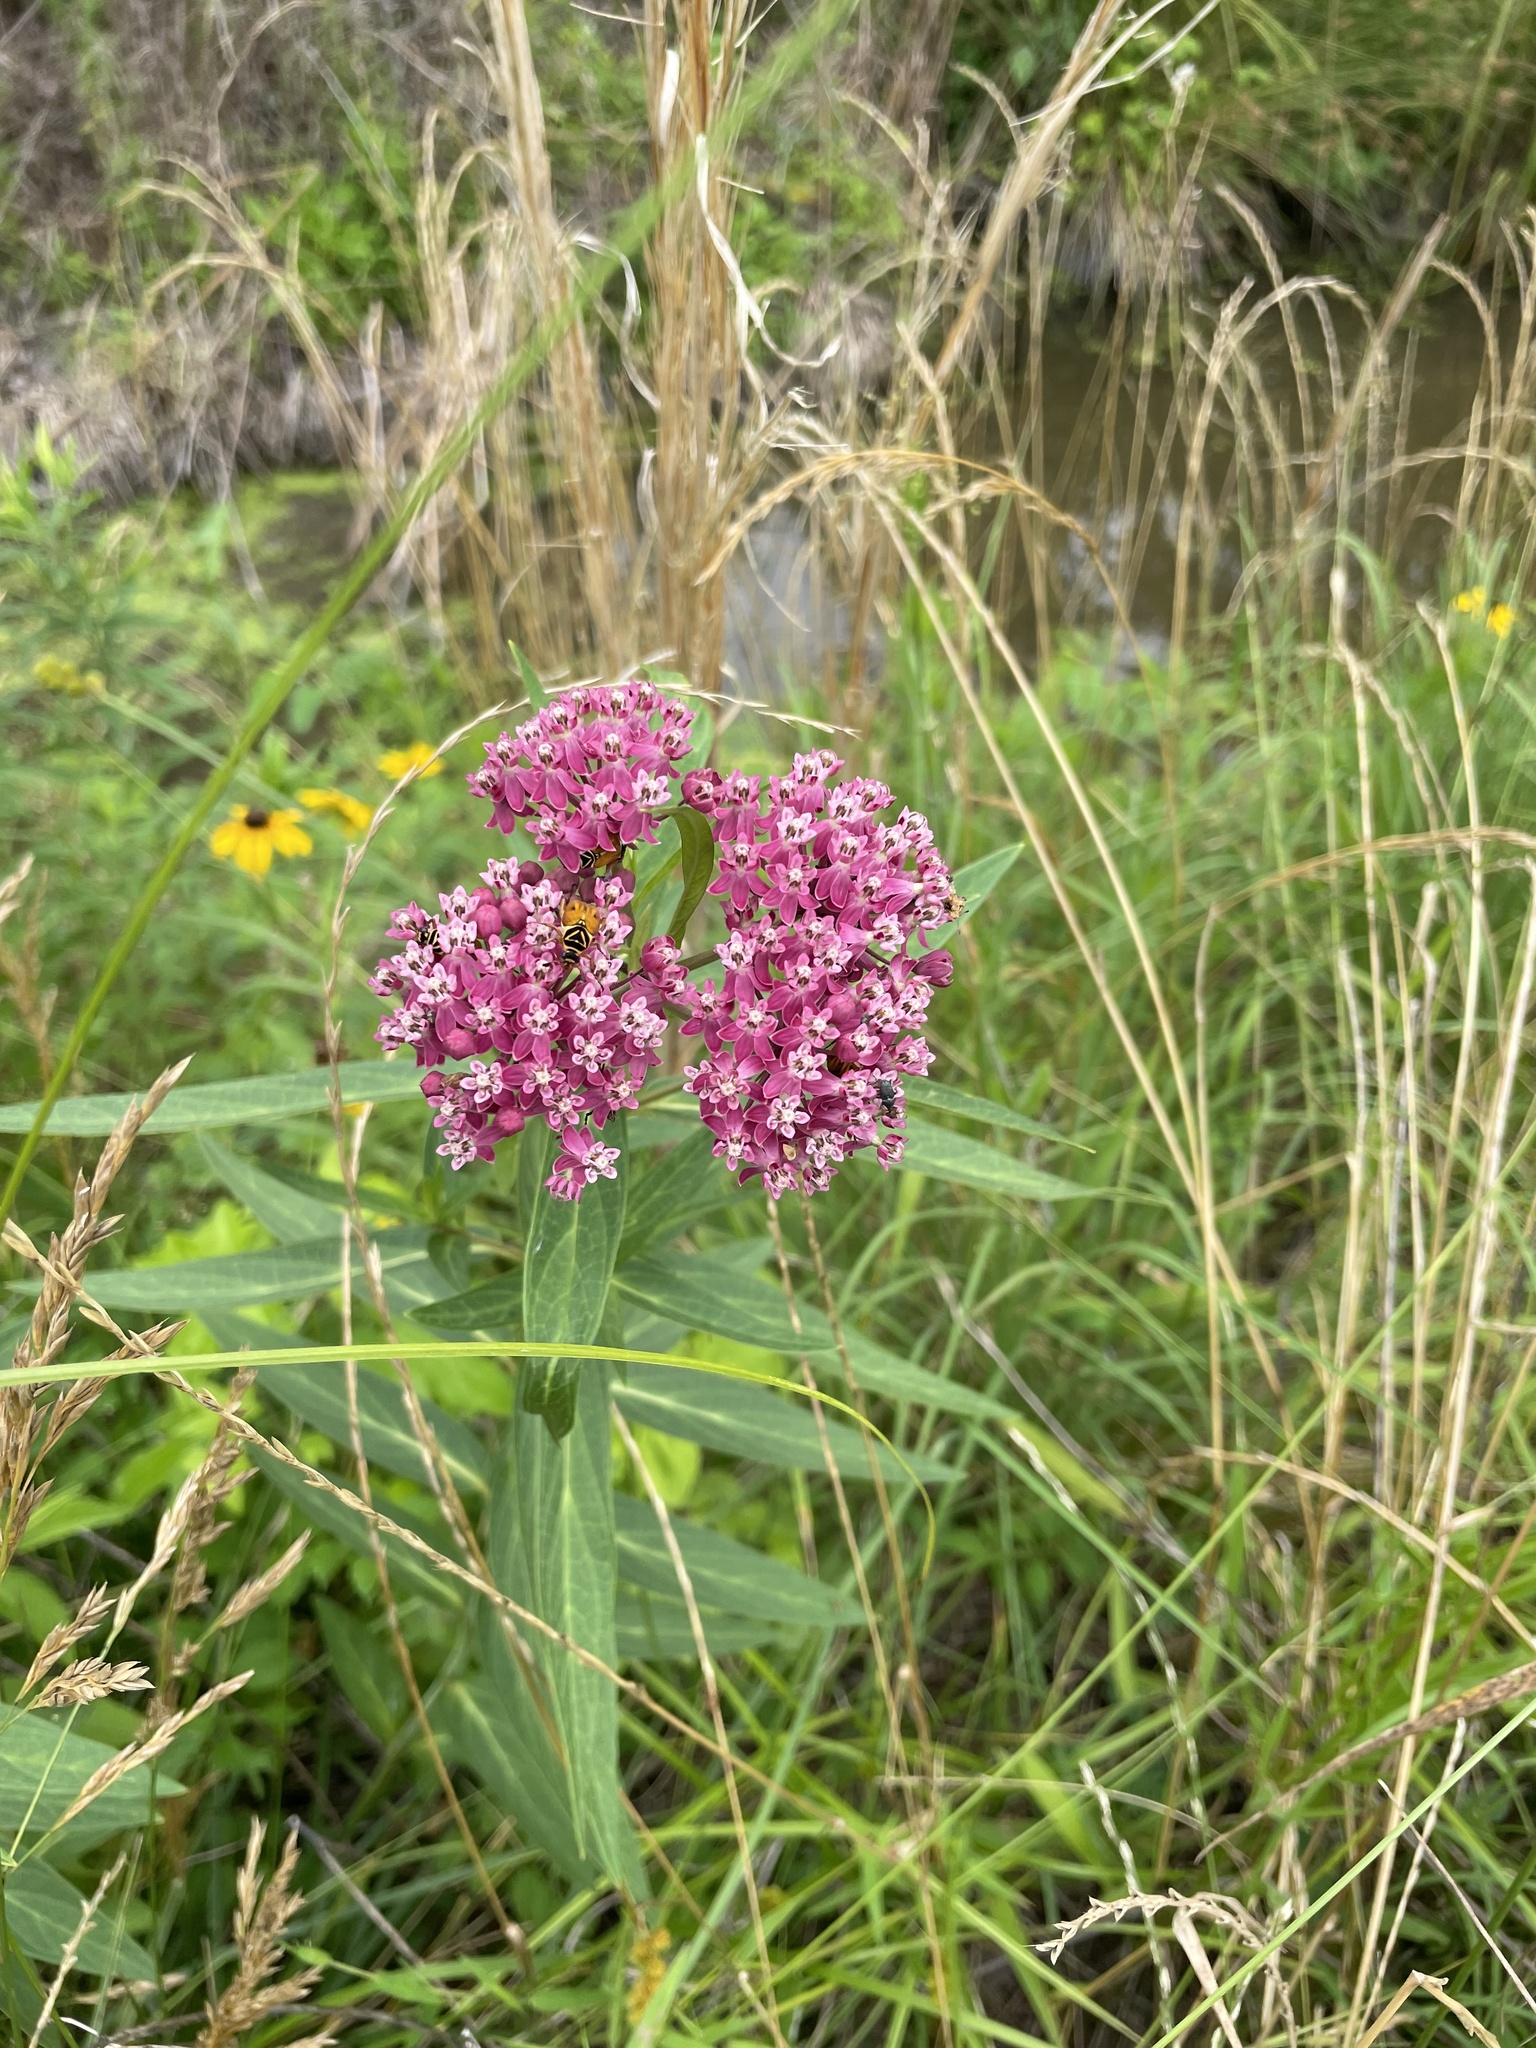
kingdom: Plantae
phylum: Tracheophyta
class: Magnoliopsida
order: Gentianales
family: Apocynaceae
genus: Asclepias
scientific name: Asclepias incarnata
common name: Swamp milkweed
